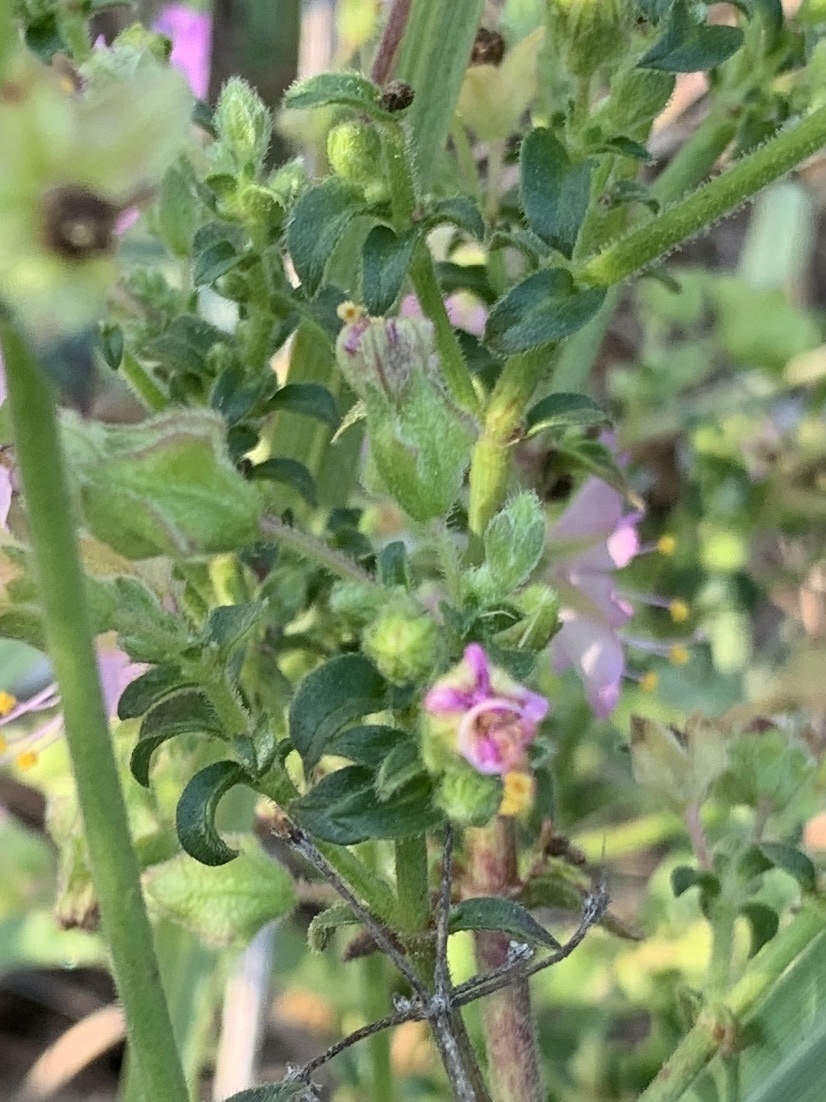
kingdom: Plantae
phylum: Tracheophyta
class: Magnoliopsida
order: Caryophyllales
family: Nyctaginaceae
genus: Mirabilis
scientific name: Mirabilis linearis
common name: Linear-leaved four-o'clock
